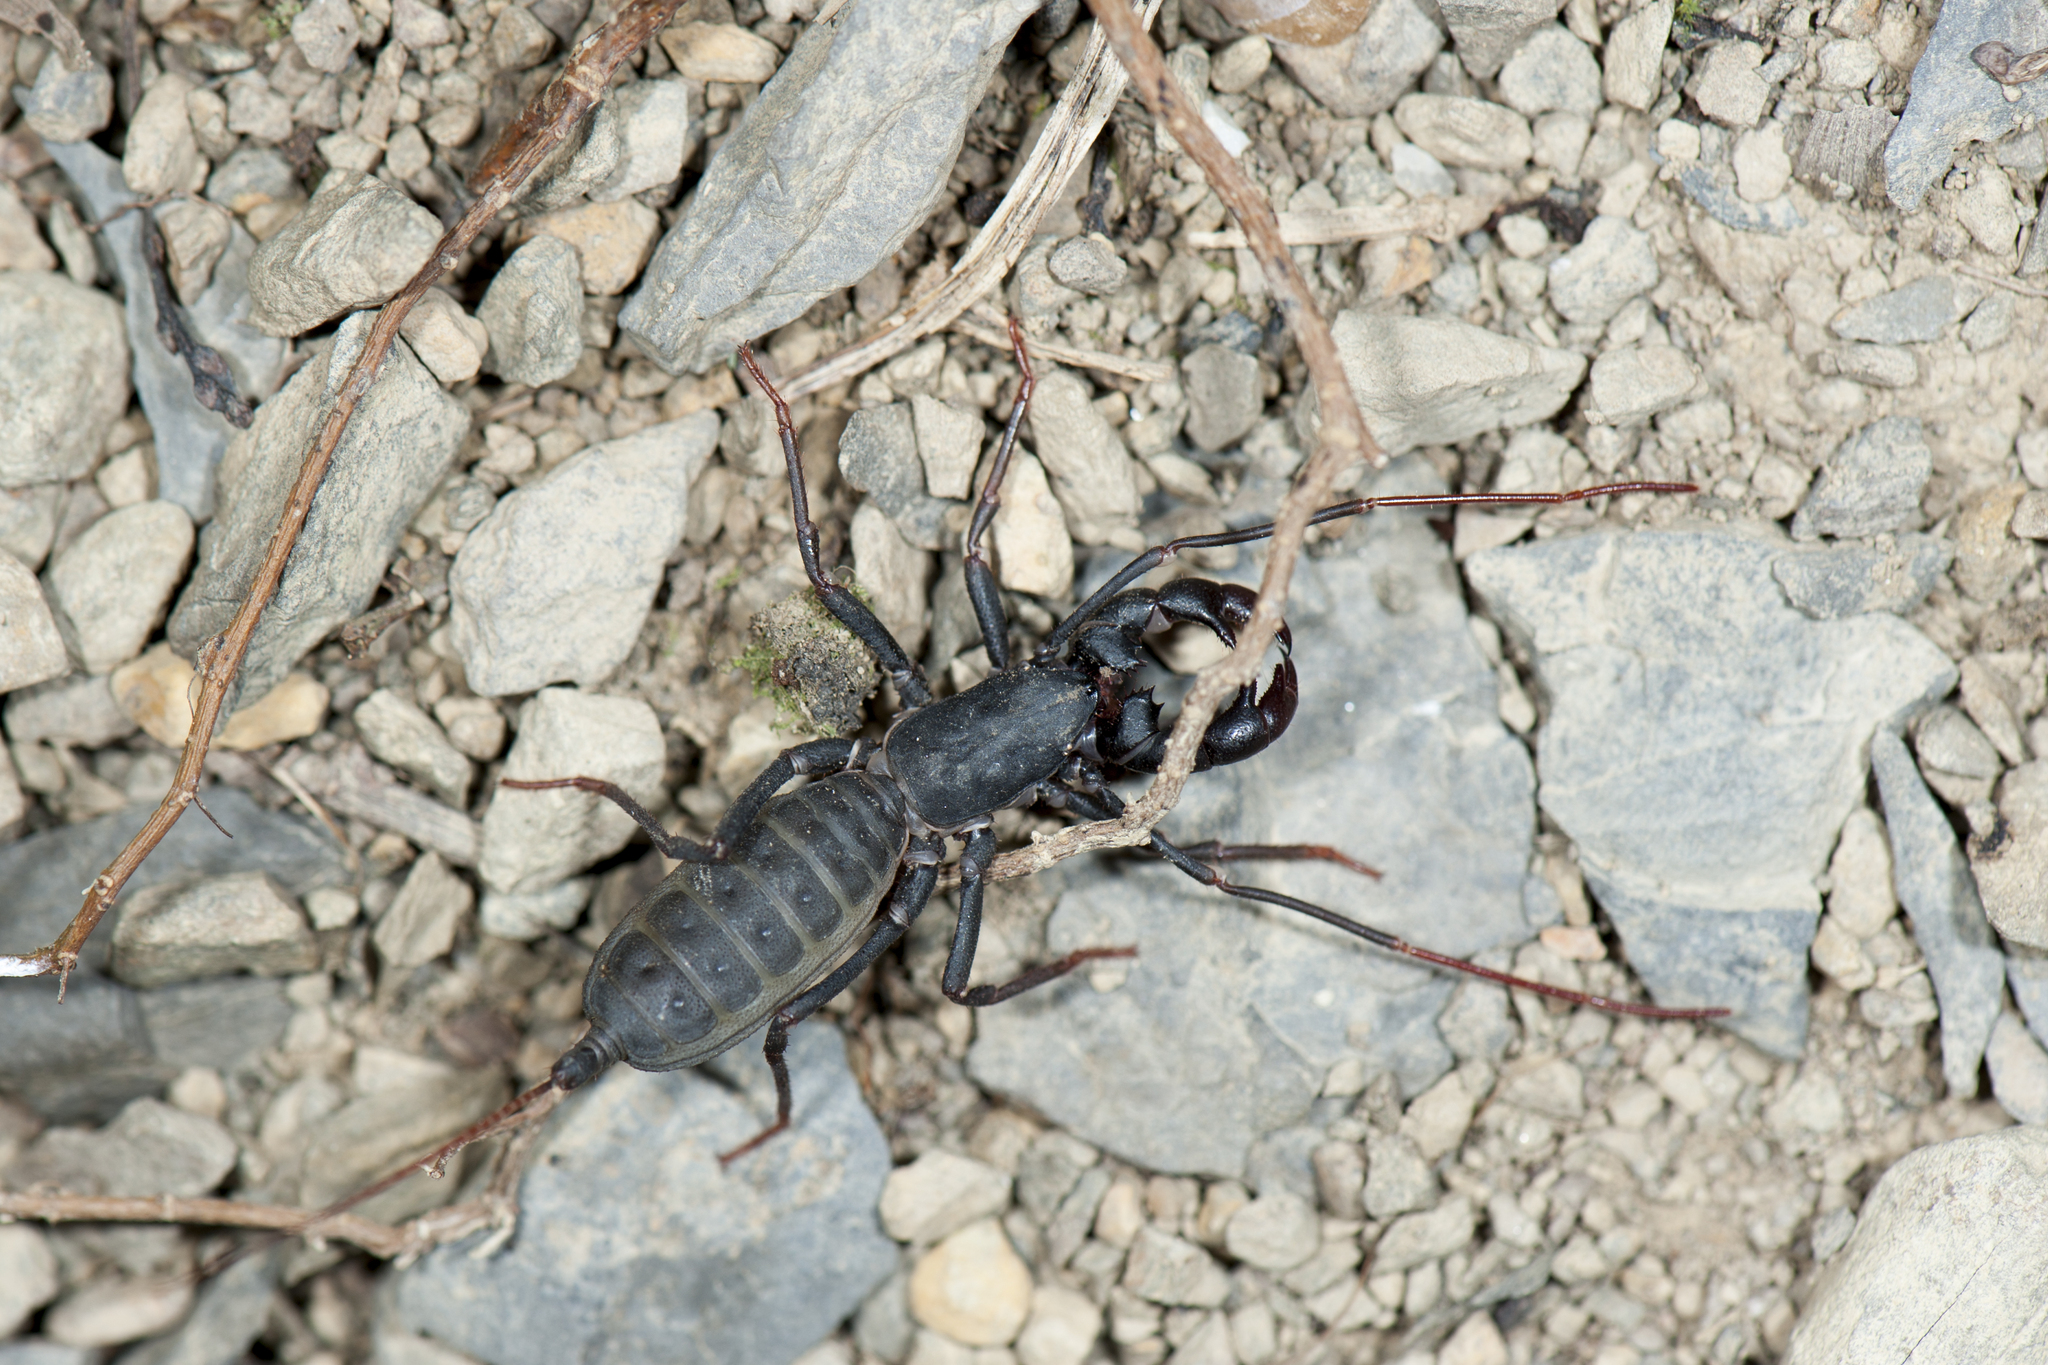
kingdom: Animalia
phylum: Arthropoda
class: Arachnida
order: Uropygi
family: Thelyphonidae
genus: Typopeltis
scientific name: Typopeltis crucifer
